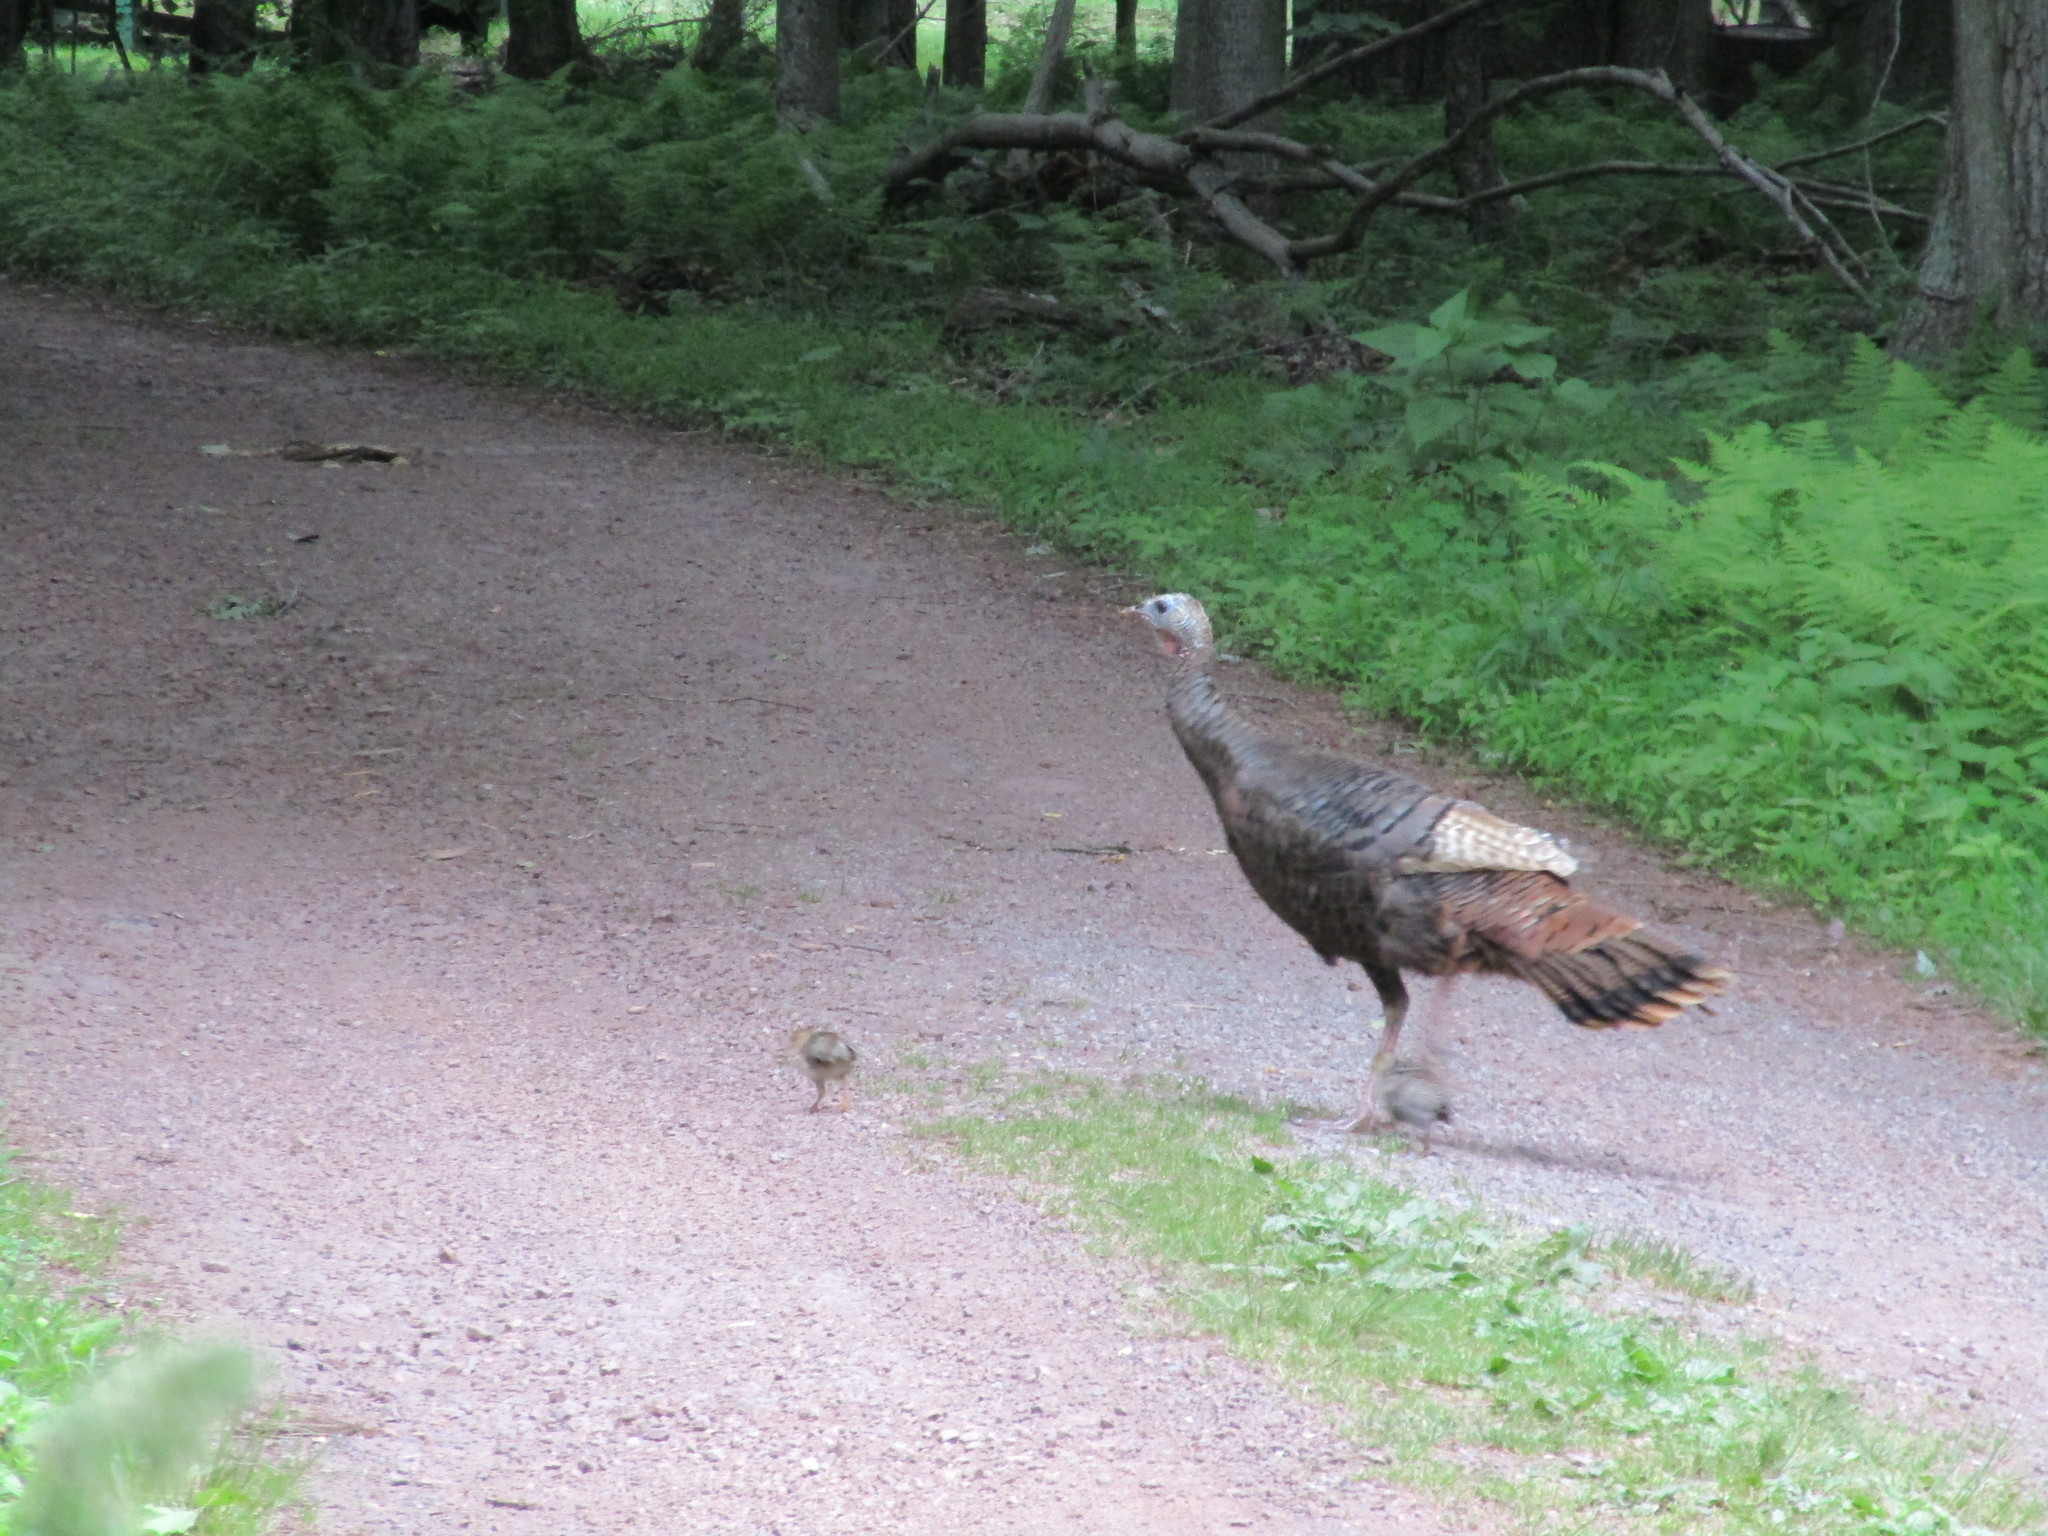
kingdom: Animalia
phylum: Chordata
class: Aves
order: Galliformes
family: Phasianidae
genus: Meleagris
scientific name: Meleagris gallopavo
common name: Wild turkey
